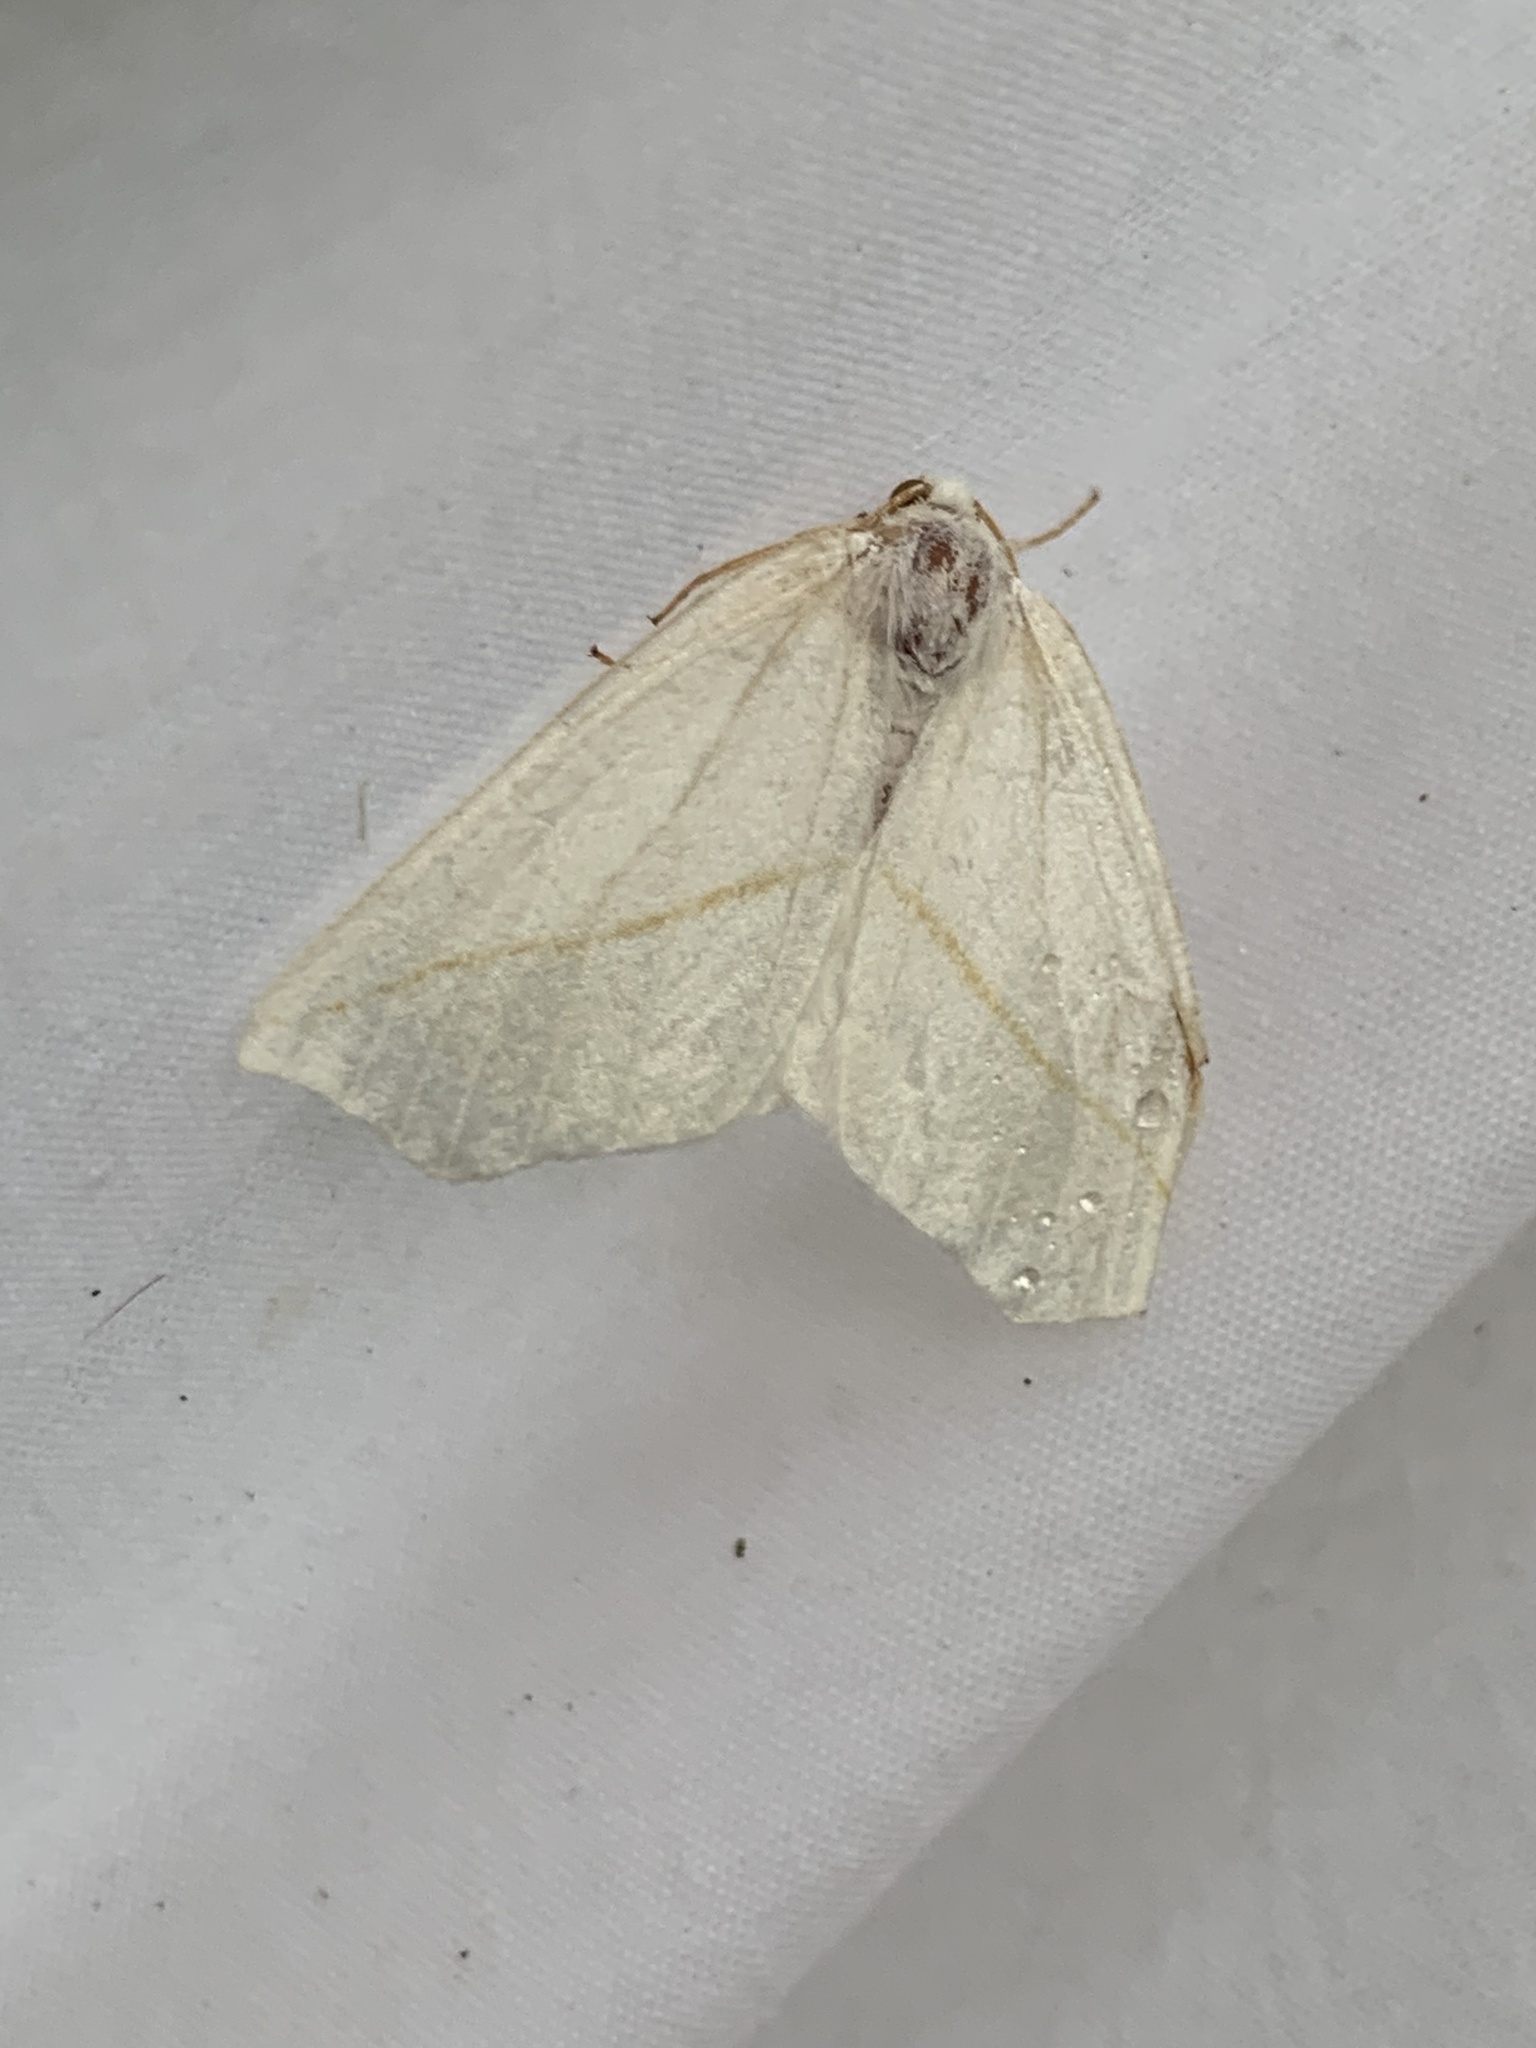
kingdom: Animalia
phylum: Arthropoda
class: Insecta
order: Lepidoptera
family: Geometridae
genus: Tetracis
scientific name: Tetracis cachexiata
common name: White slant-line
